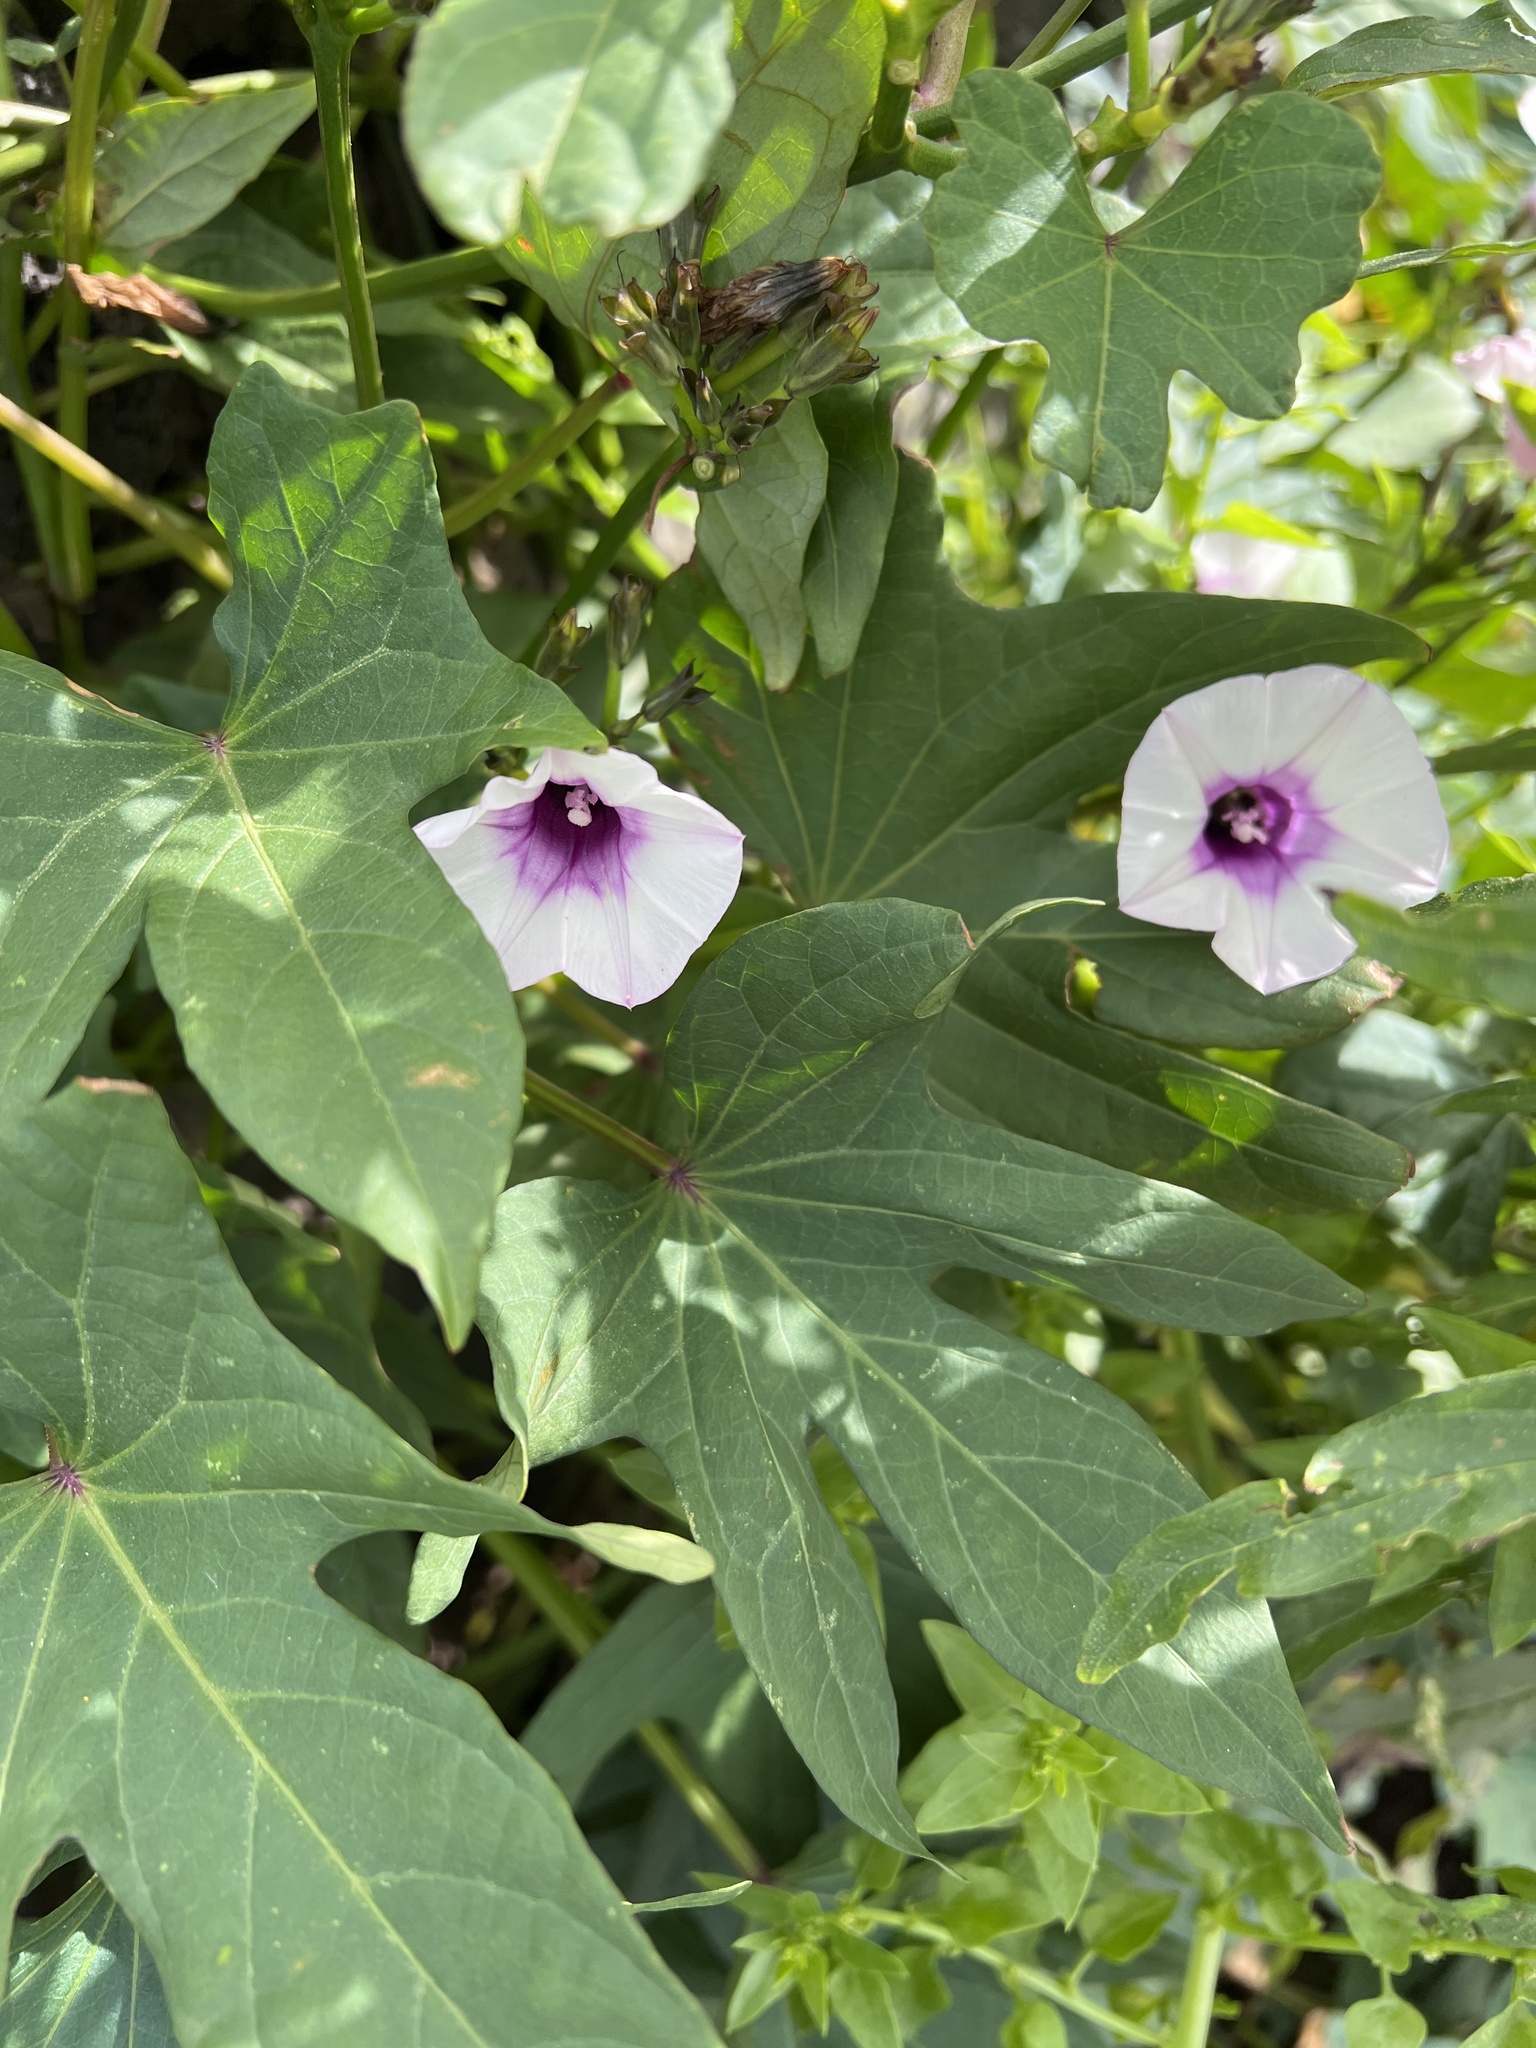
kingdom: Plantae
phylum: Tracheophyta
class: Magnoliopsida
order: Solanales
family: Convolvulaceae
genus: Ipomoea
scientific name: Ipomoea batatas
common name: Sweet-potato
